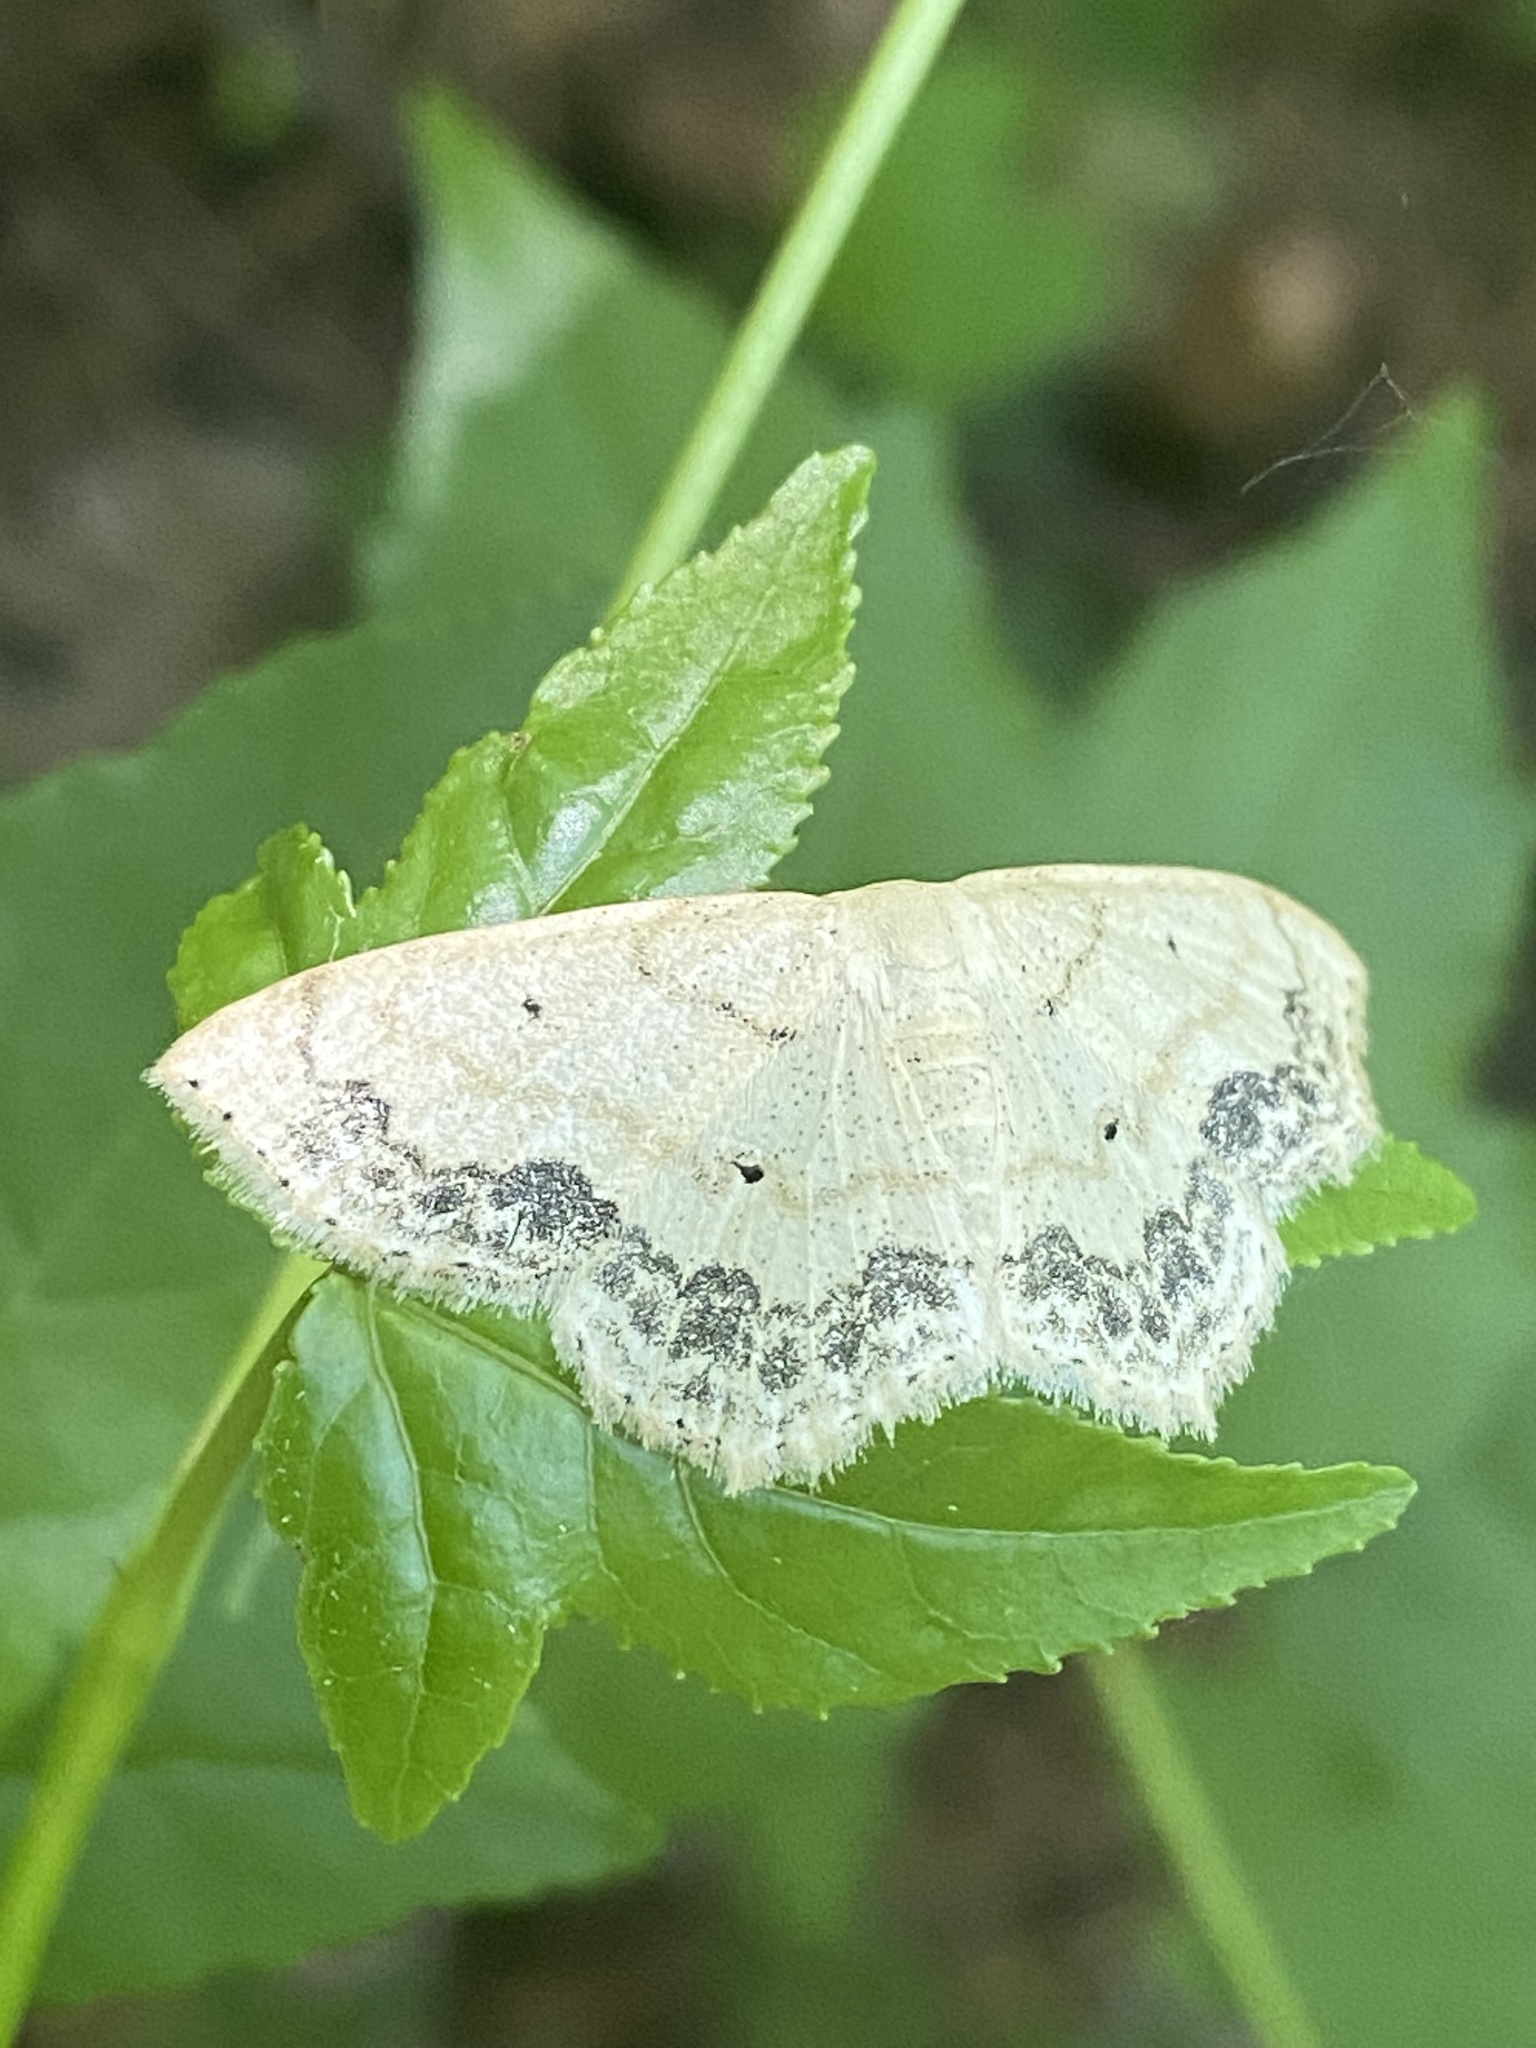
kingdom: Animalia
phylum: Arthropoda
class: Insecta
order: Lepidoptera
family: Geometridae
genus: Scopula
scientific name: Scopula limboundata
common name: Large lace border
